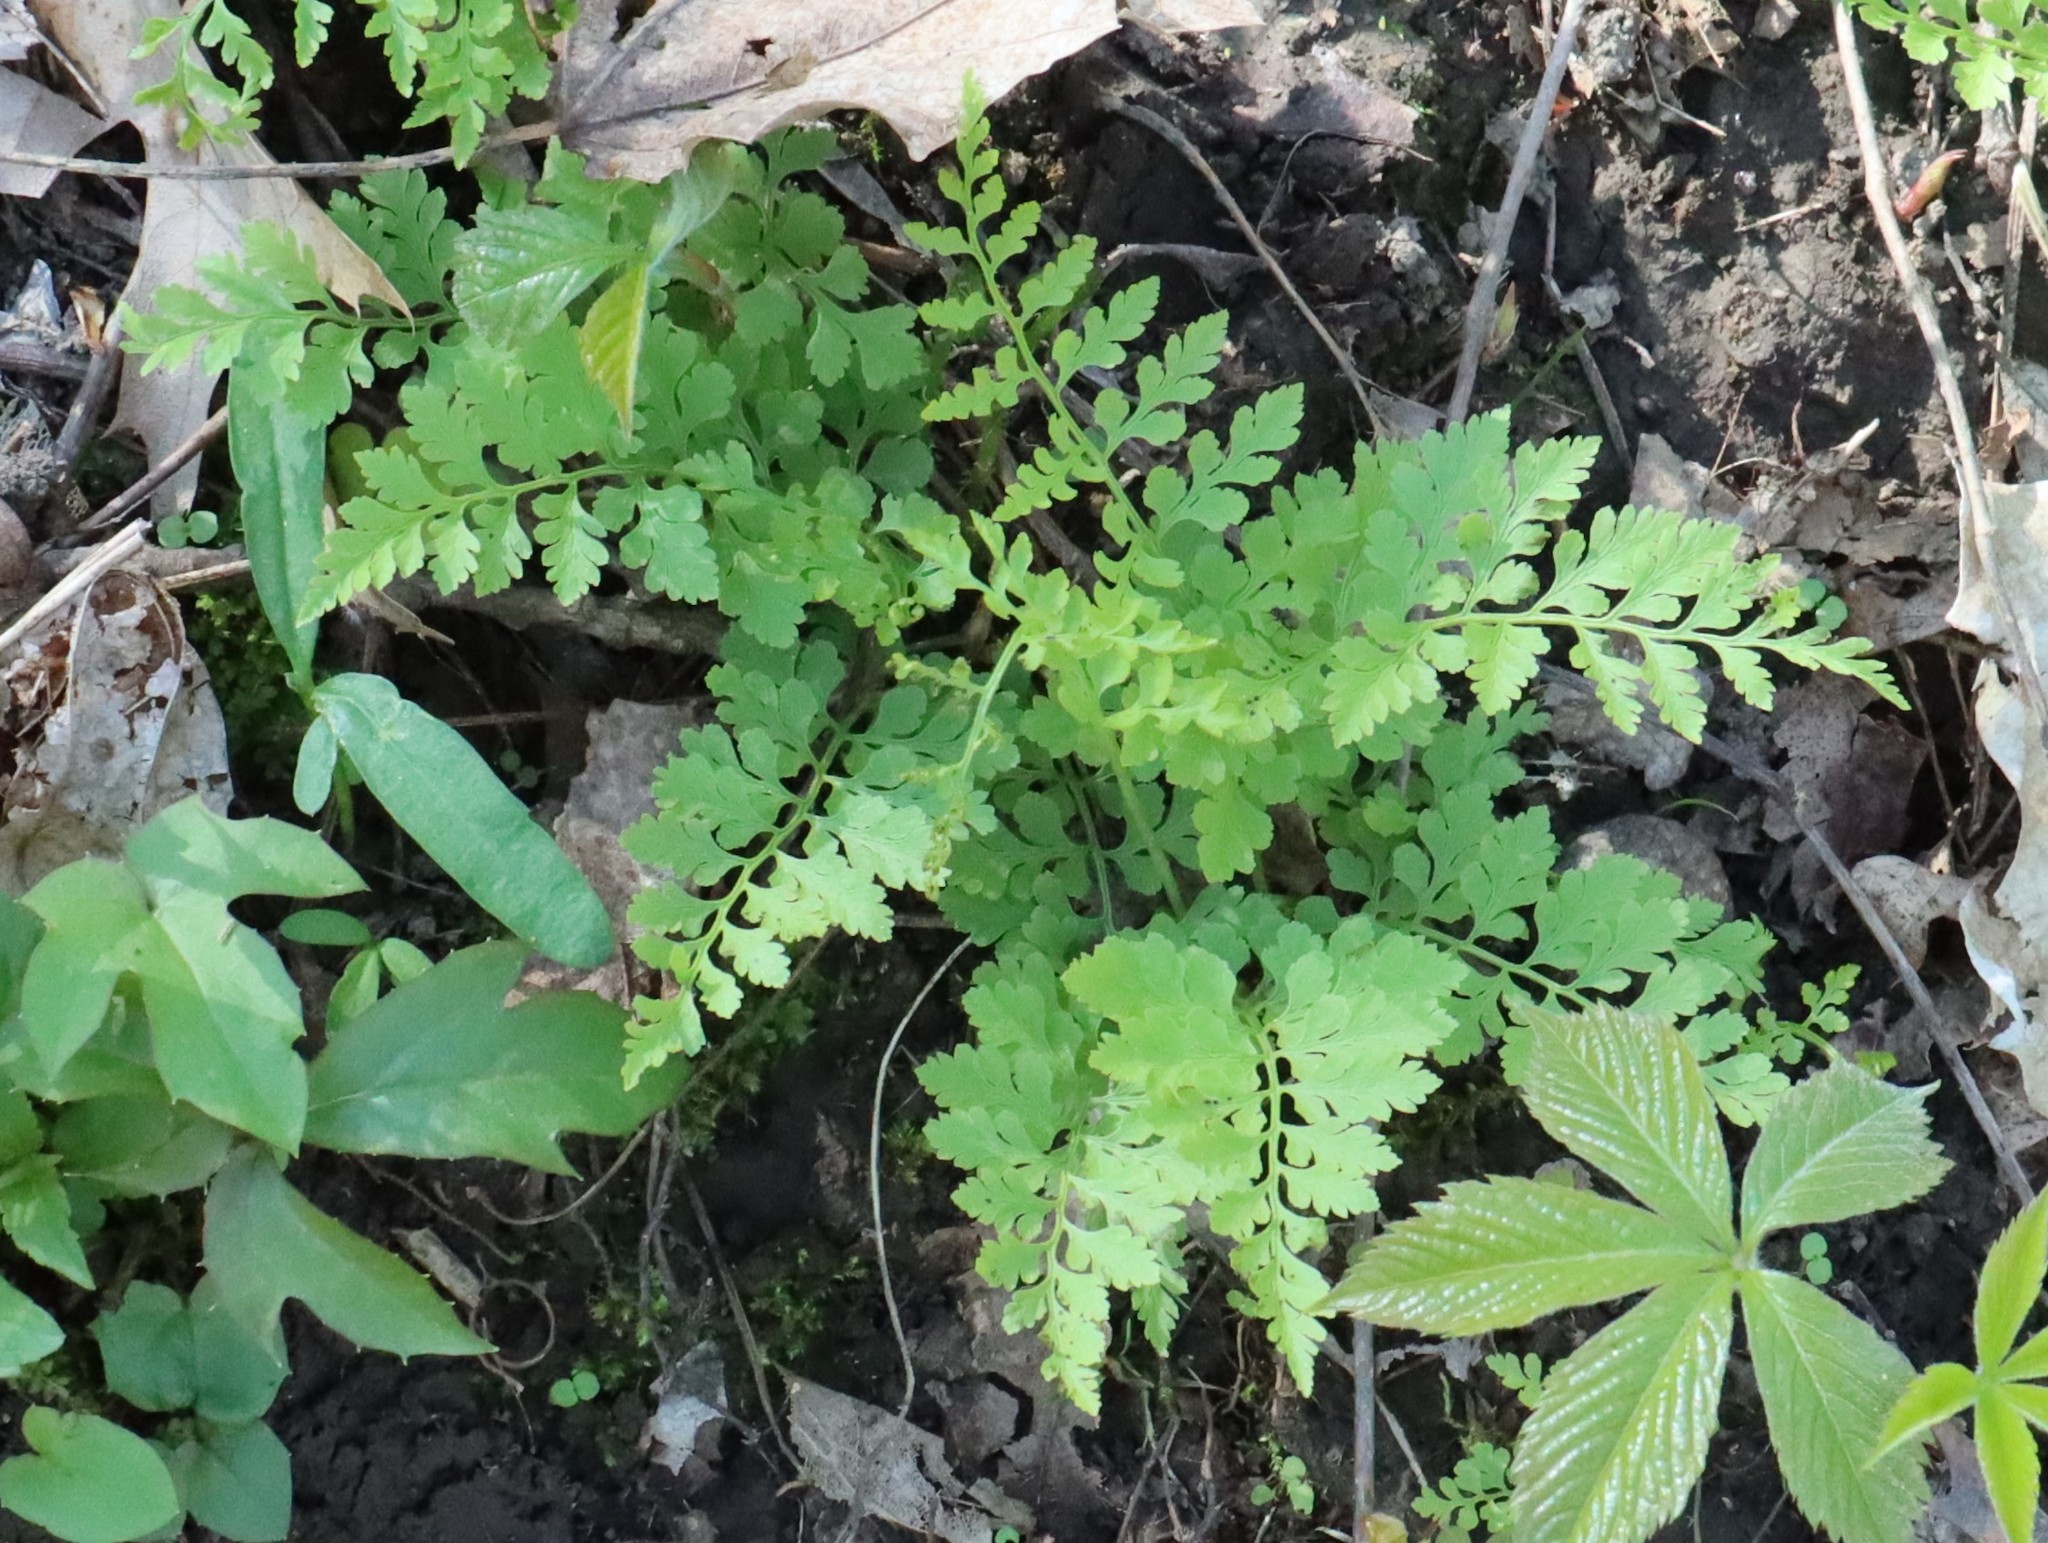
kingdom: Plantae
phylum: Tracheophyta
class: Polypodiopsida
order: Polypodiales
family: Cystopteridaceae
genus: Cystopteris
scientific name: Cystopteris protrusa
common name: Lowland brittle fern
